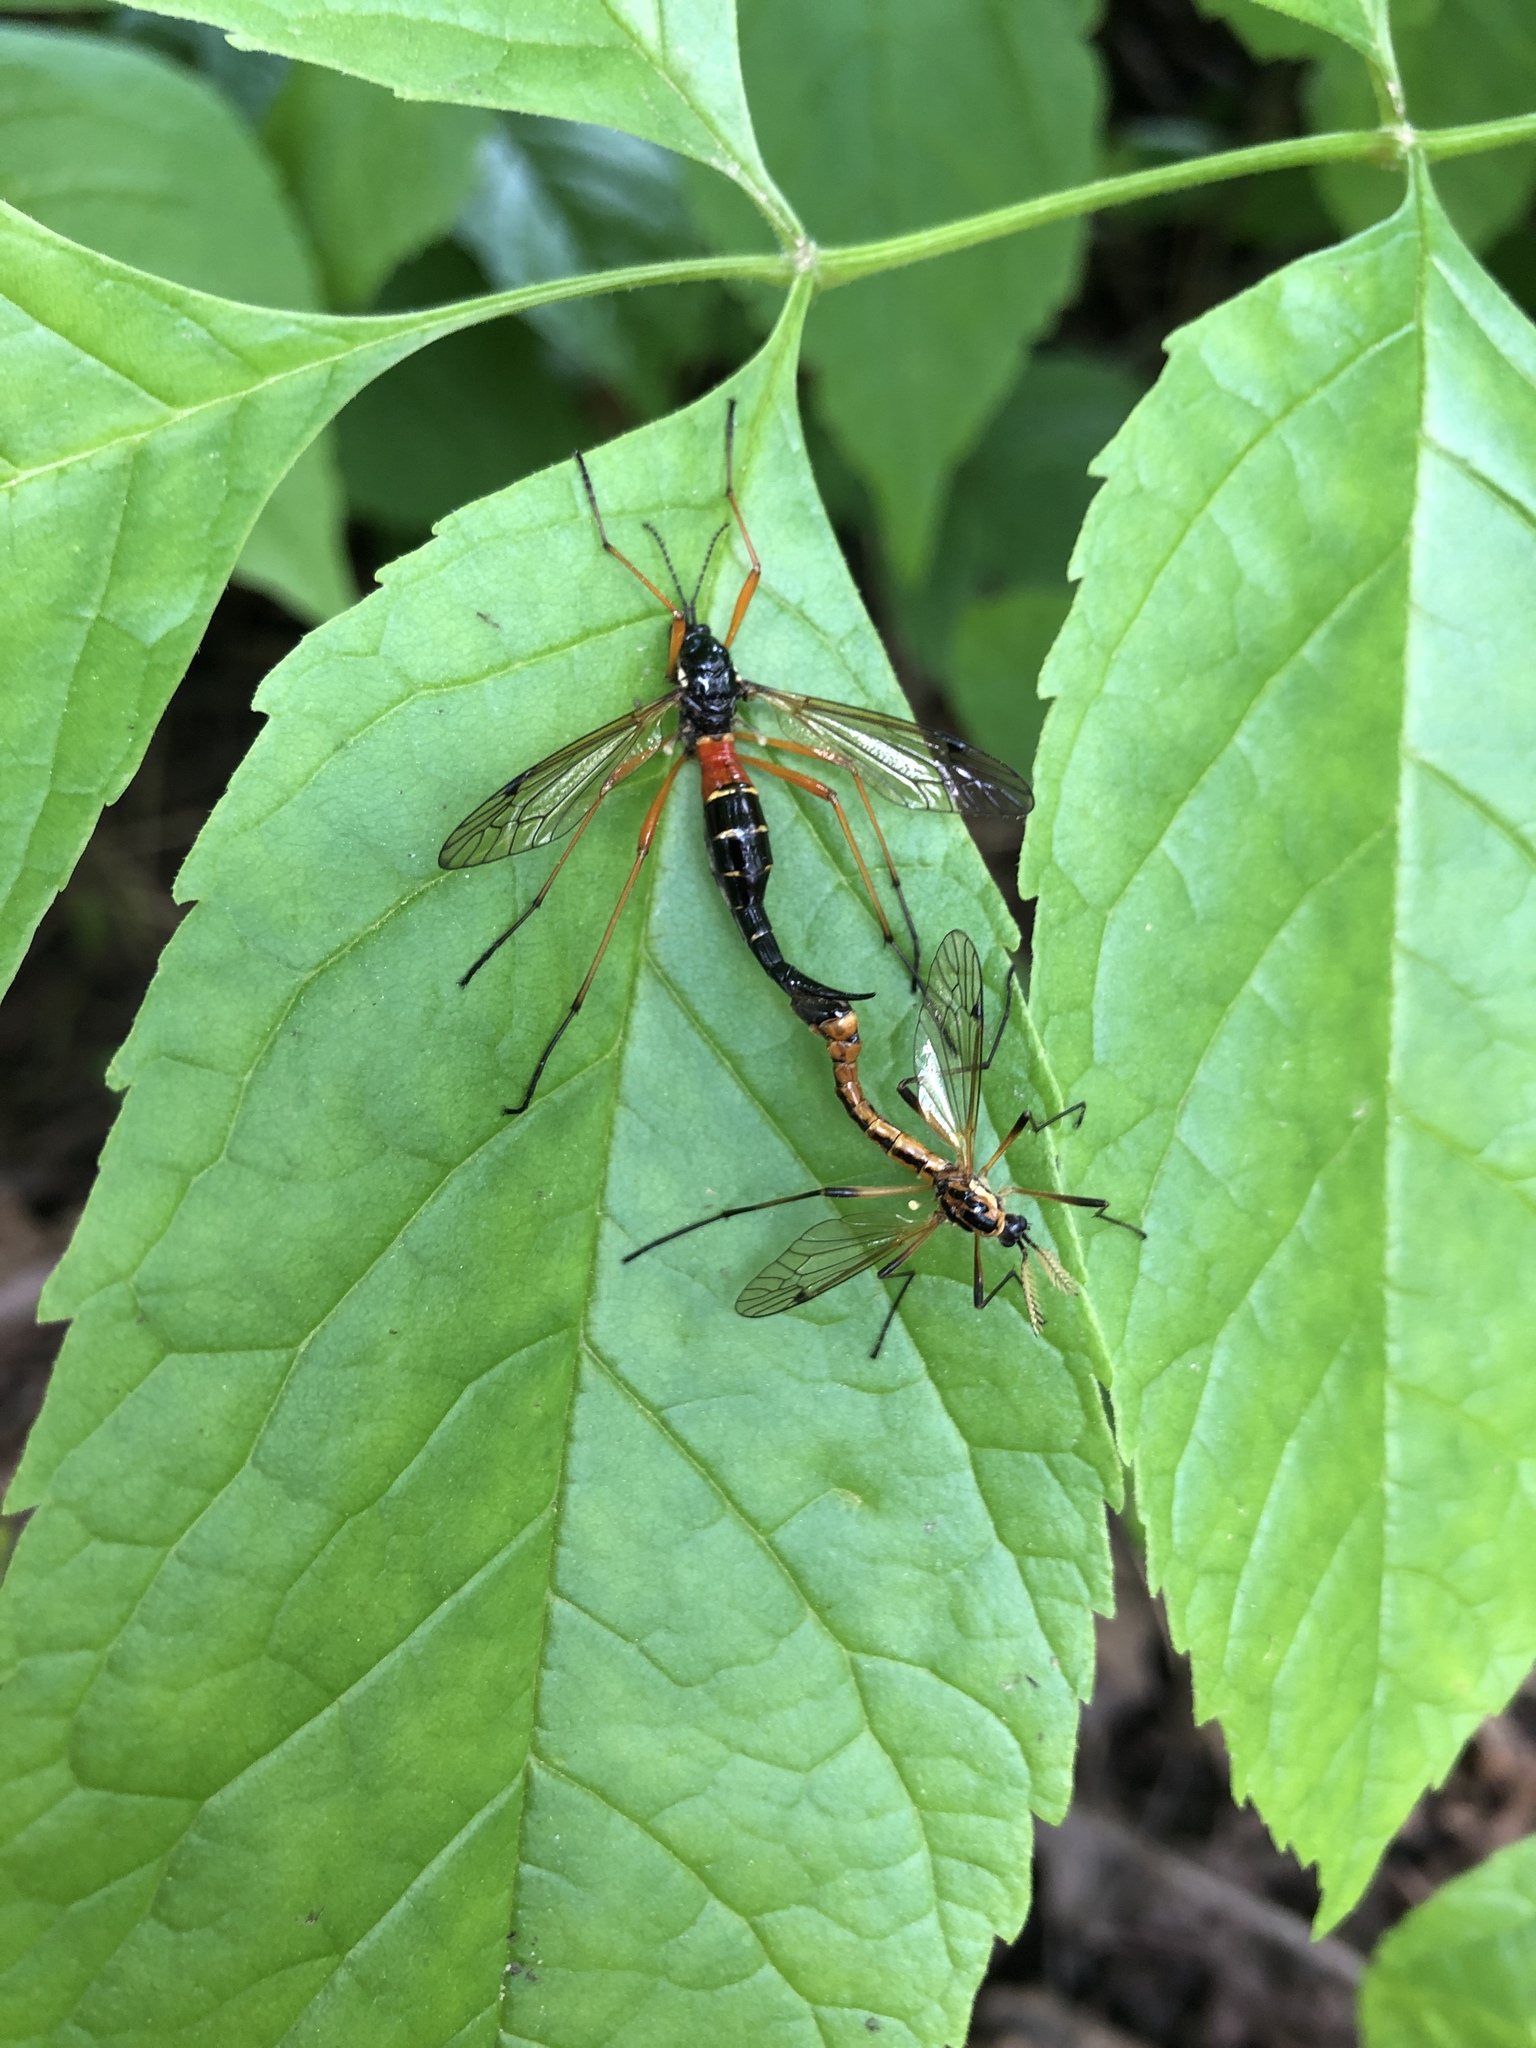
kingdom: Animalia
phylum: Arthropoda
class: Insecta
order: Diptera
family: Tipulidae
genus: Tanyptera
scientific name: Tanyptera dorsalis
